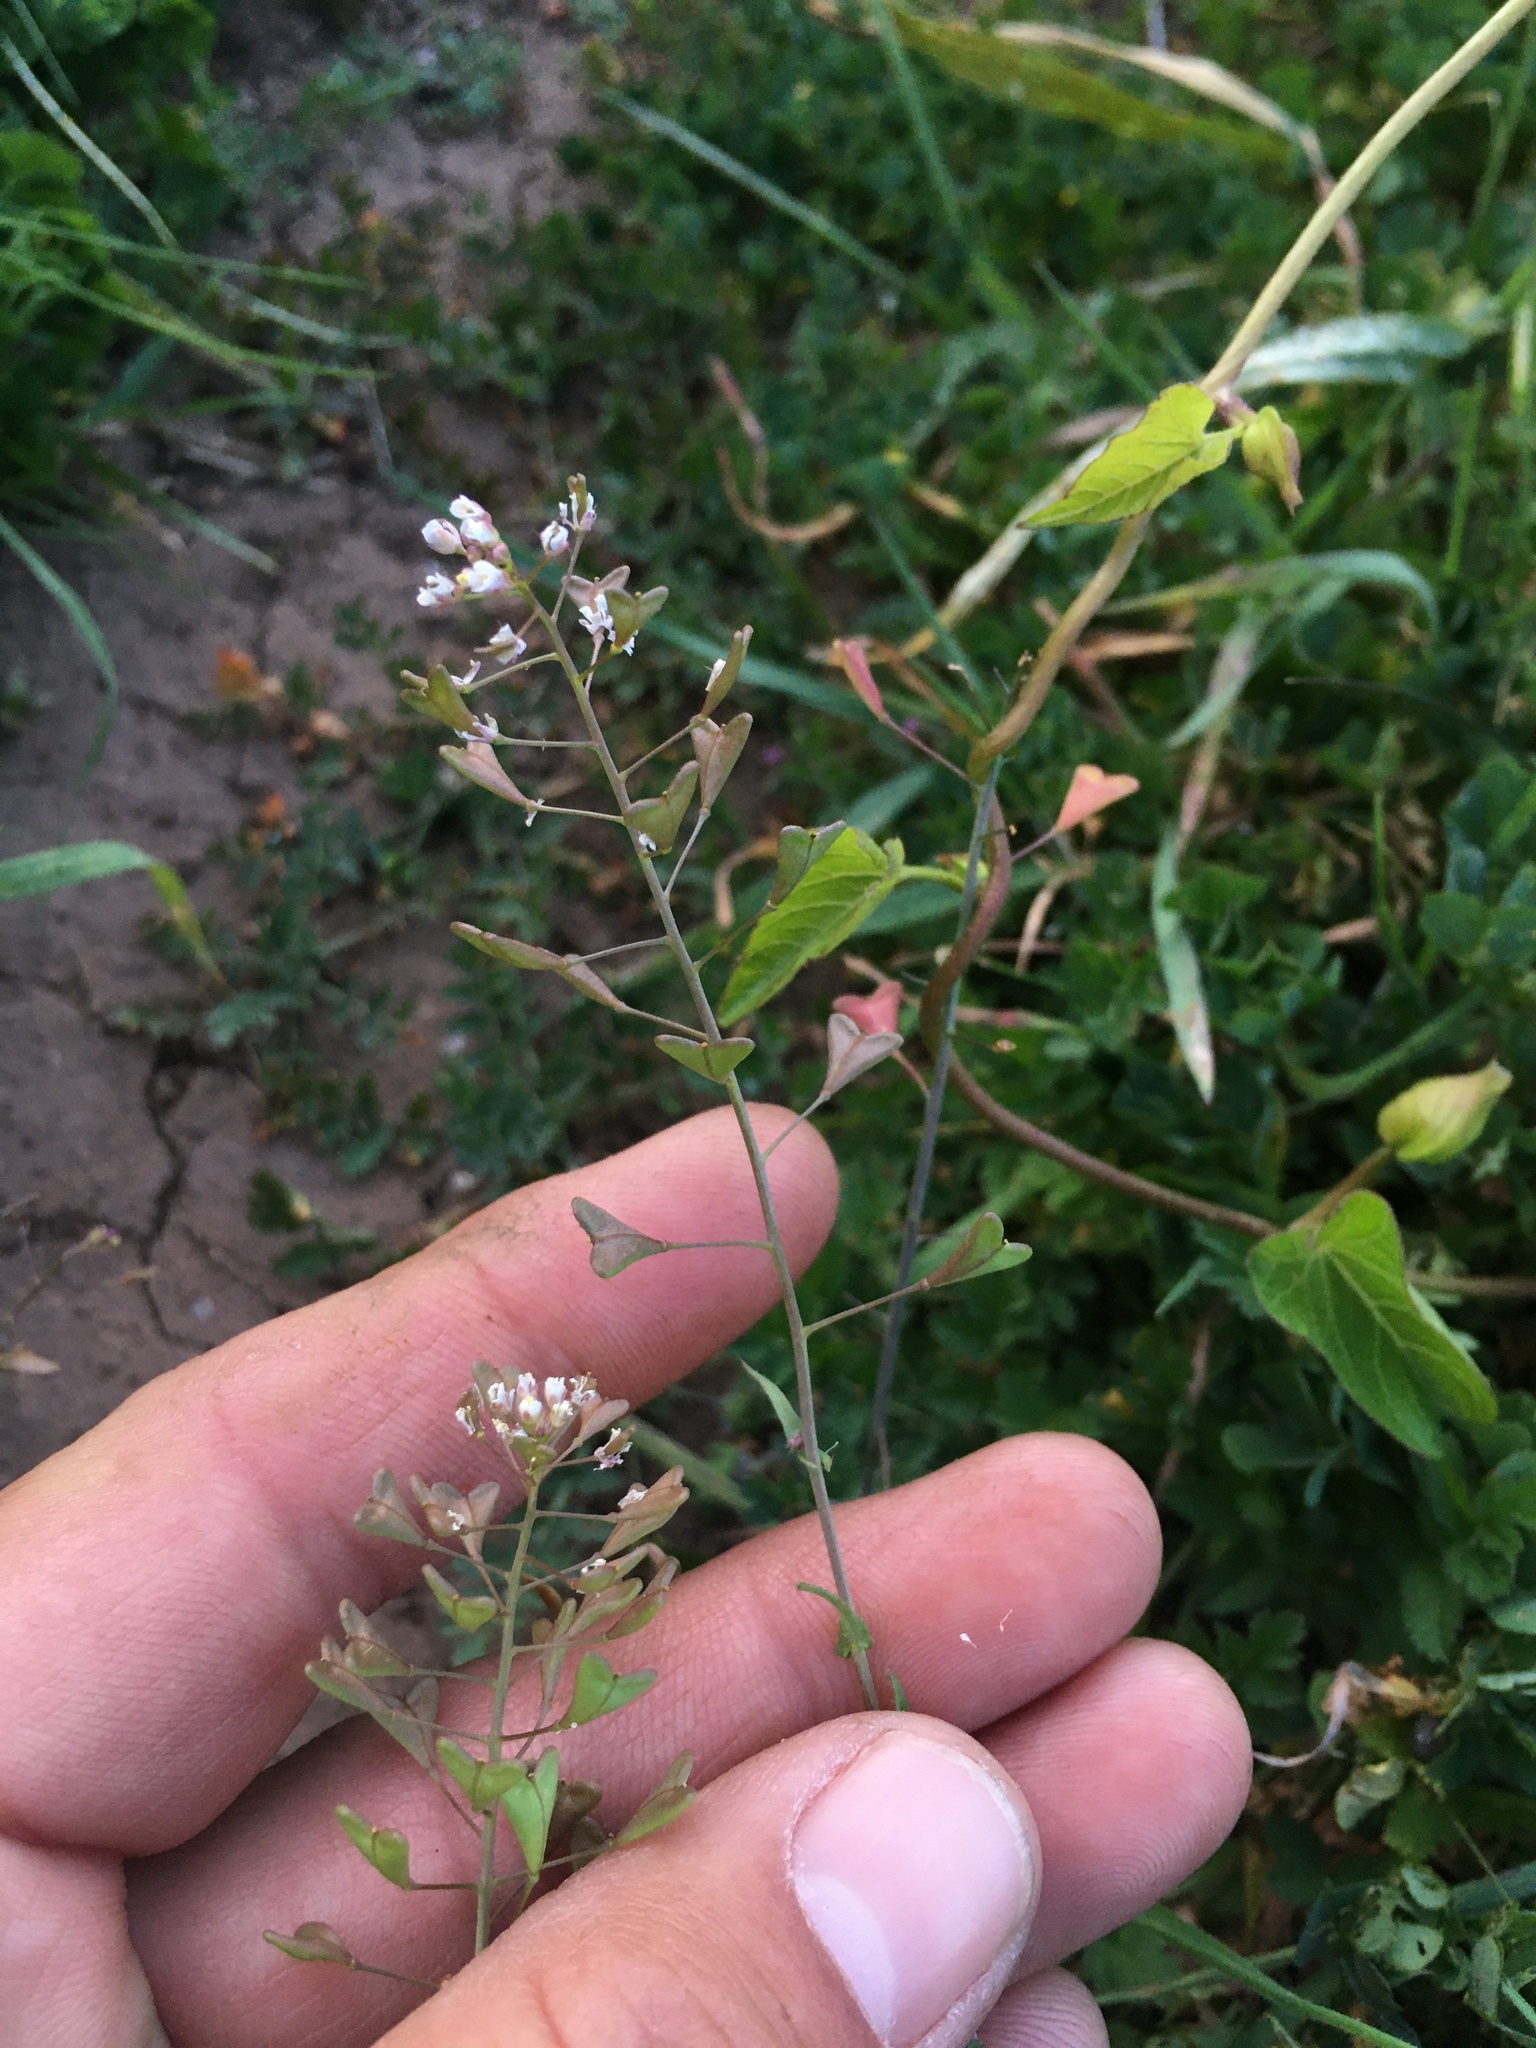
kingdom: Plantae
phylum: Tracheophyta
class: Magnoliopsida
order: Brassicales
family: Brassicaceae
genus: Capsella
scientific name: Capsella bursa-pastoris
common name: Shepherd's purse
